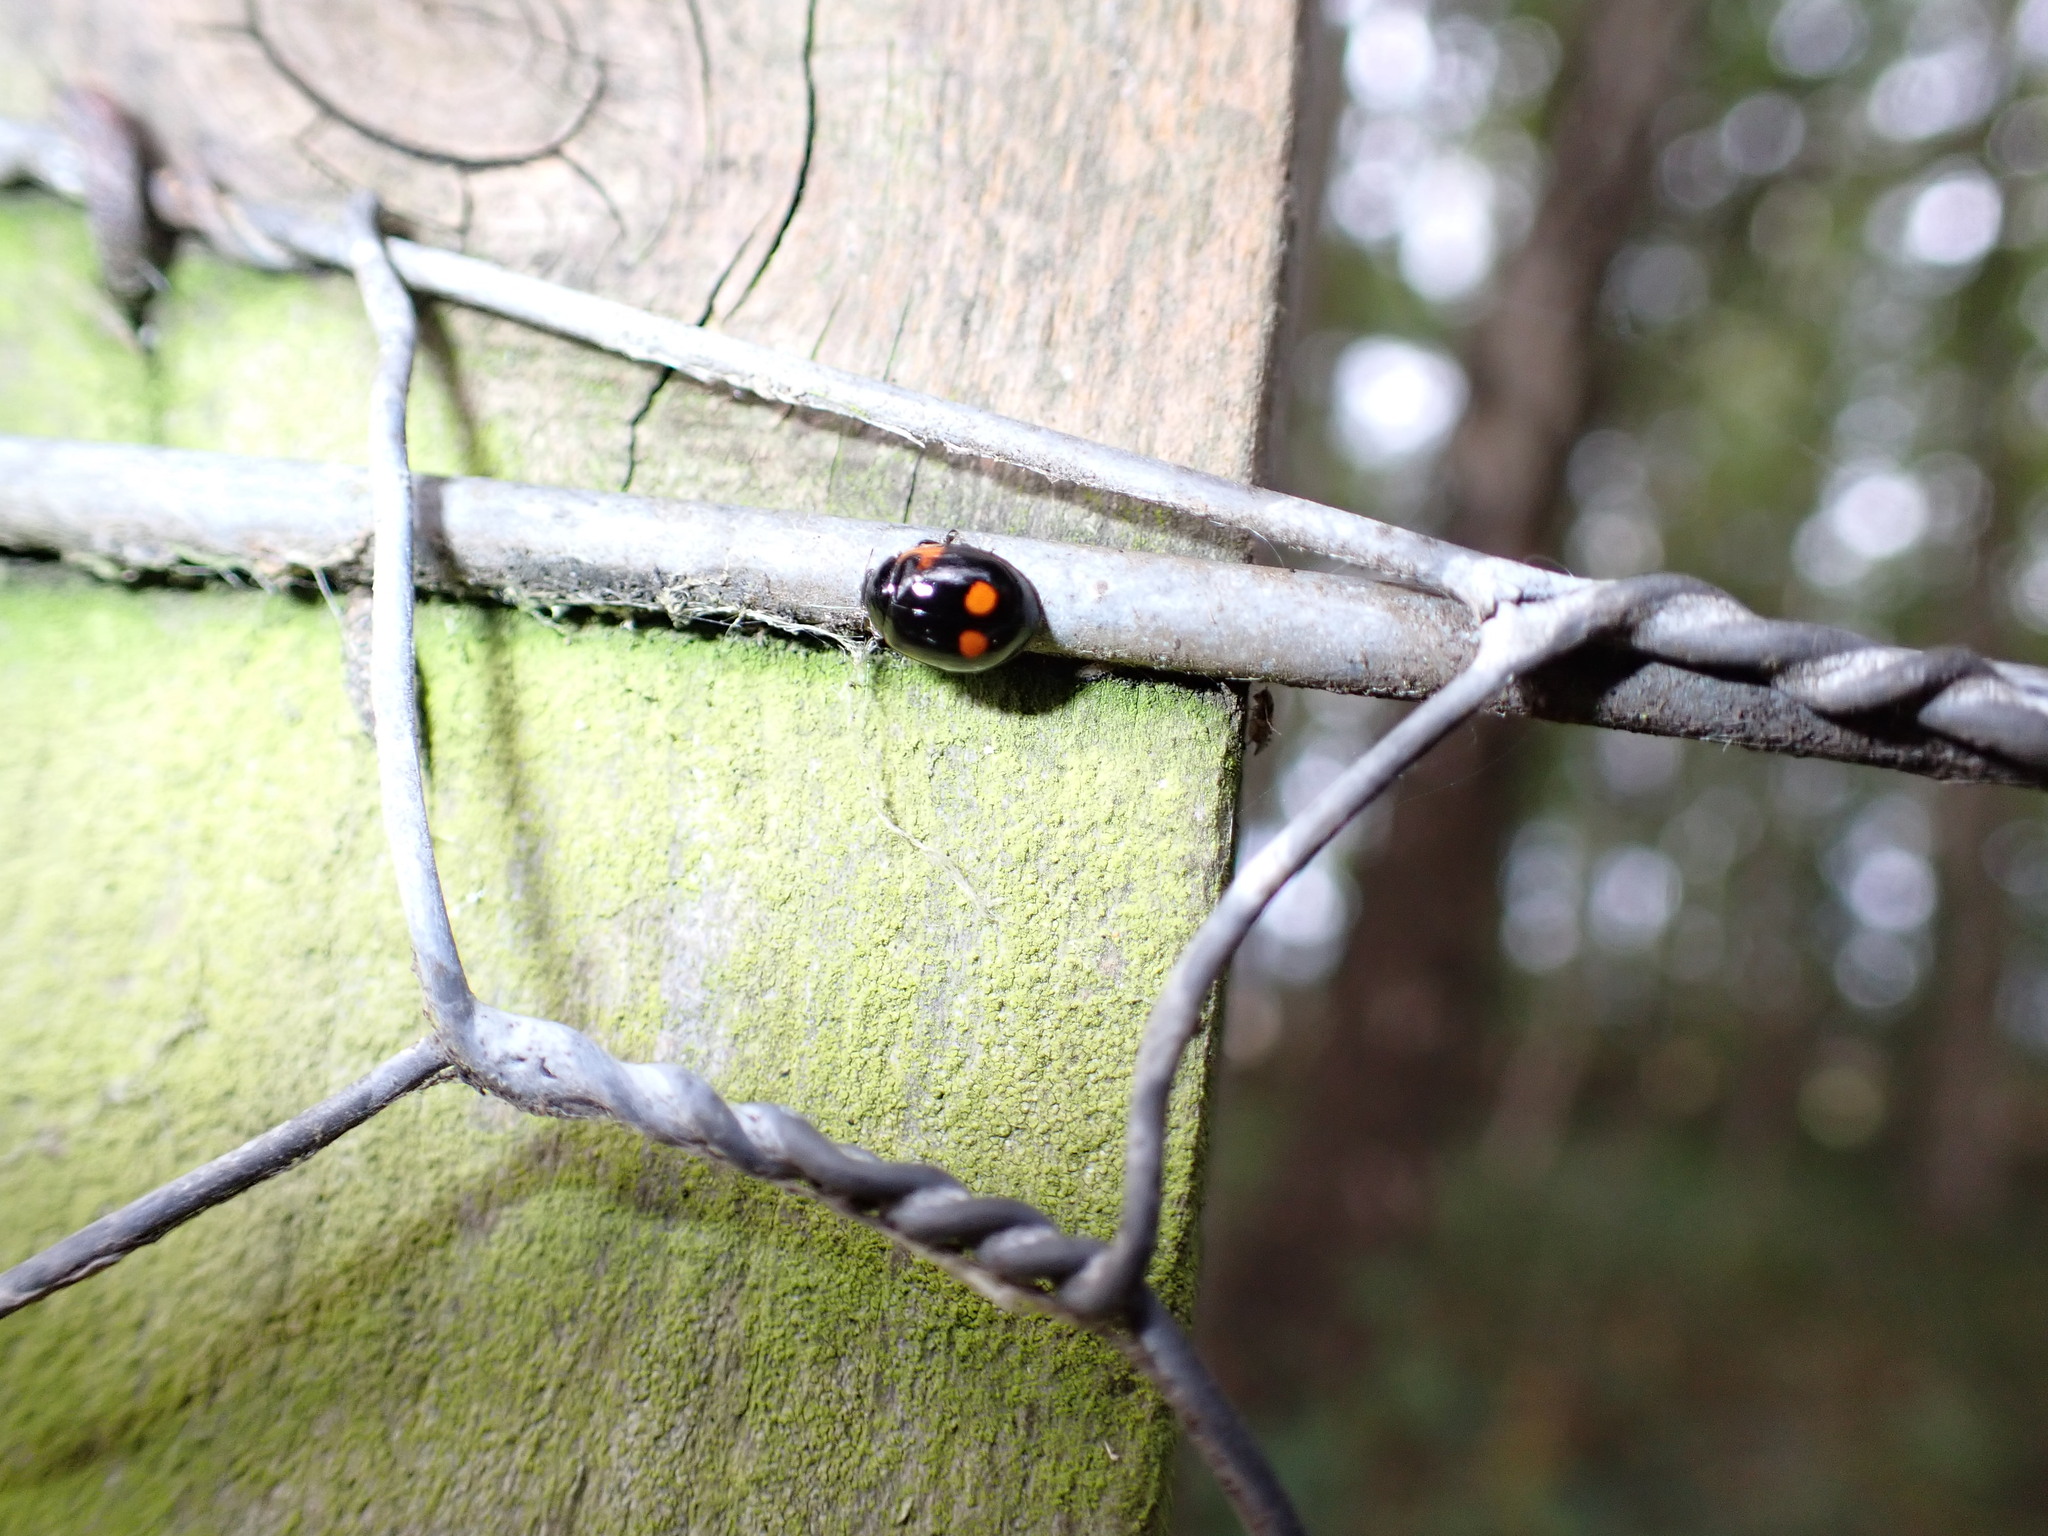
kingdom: Animalia
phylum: Arthropoda
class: Insecta
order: Coleoptera
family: Coccinellidae
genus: Adalia
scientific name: Adalia bipunctata
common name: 2-spot ladybird
